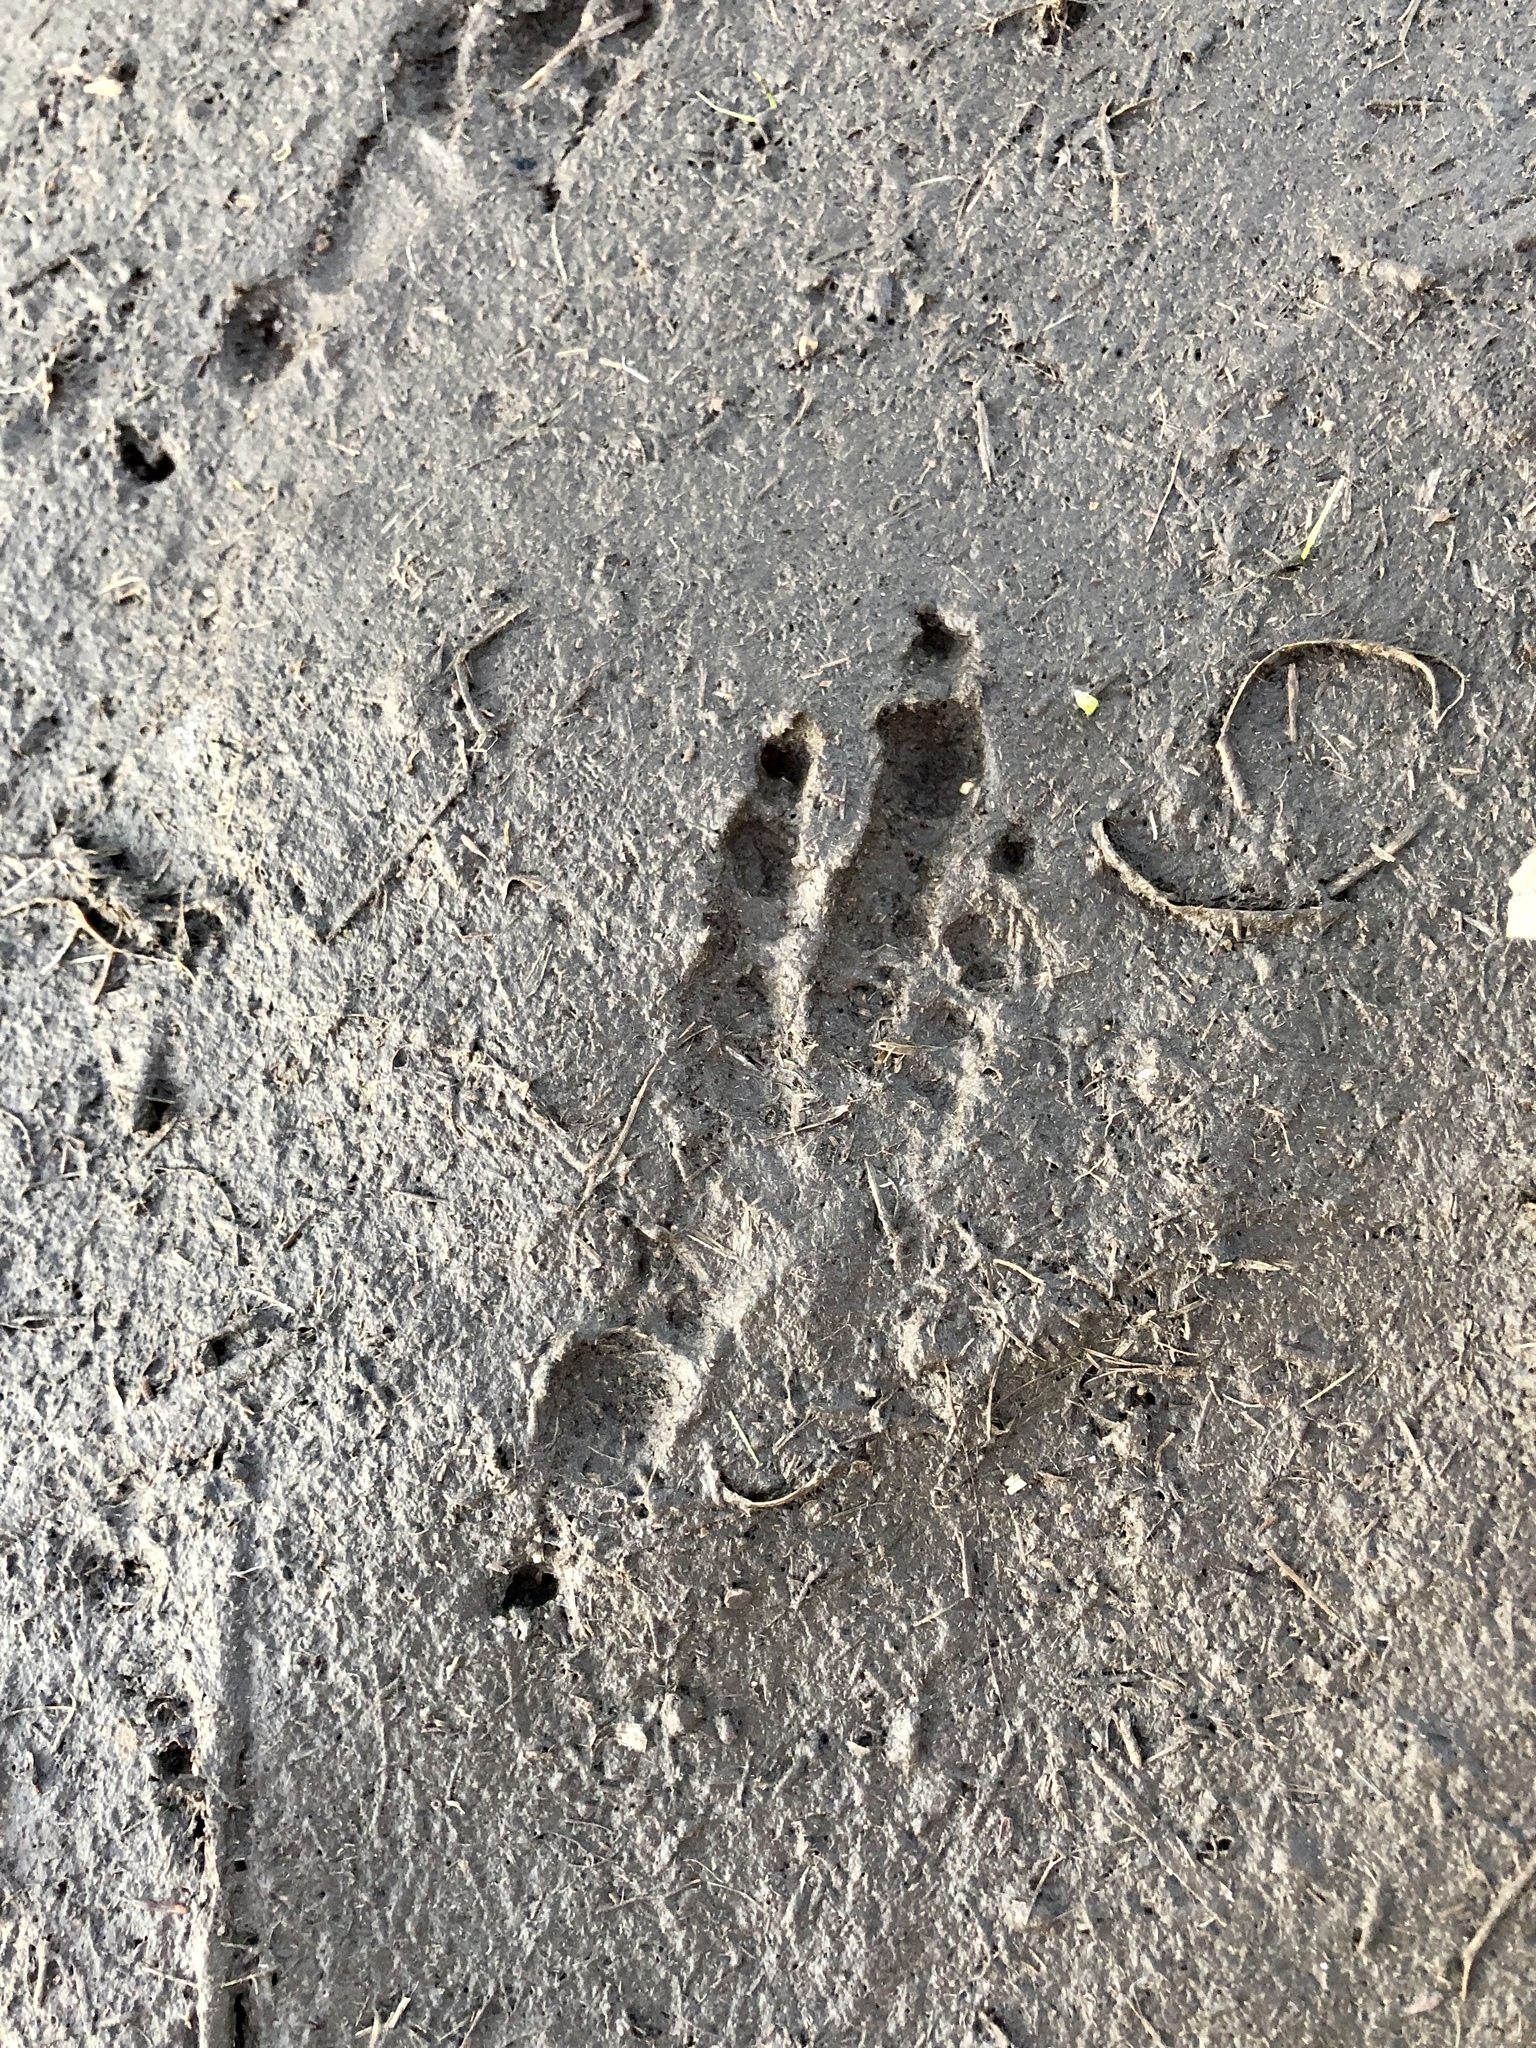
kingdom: Animalia
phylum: Chordata
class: Aves
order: Galliformes
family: Phasianidae
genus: Meleagris
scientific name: Meleagris gallopavo
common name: Wild turkey
